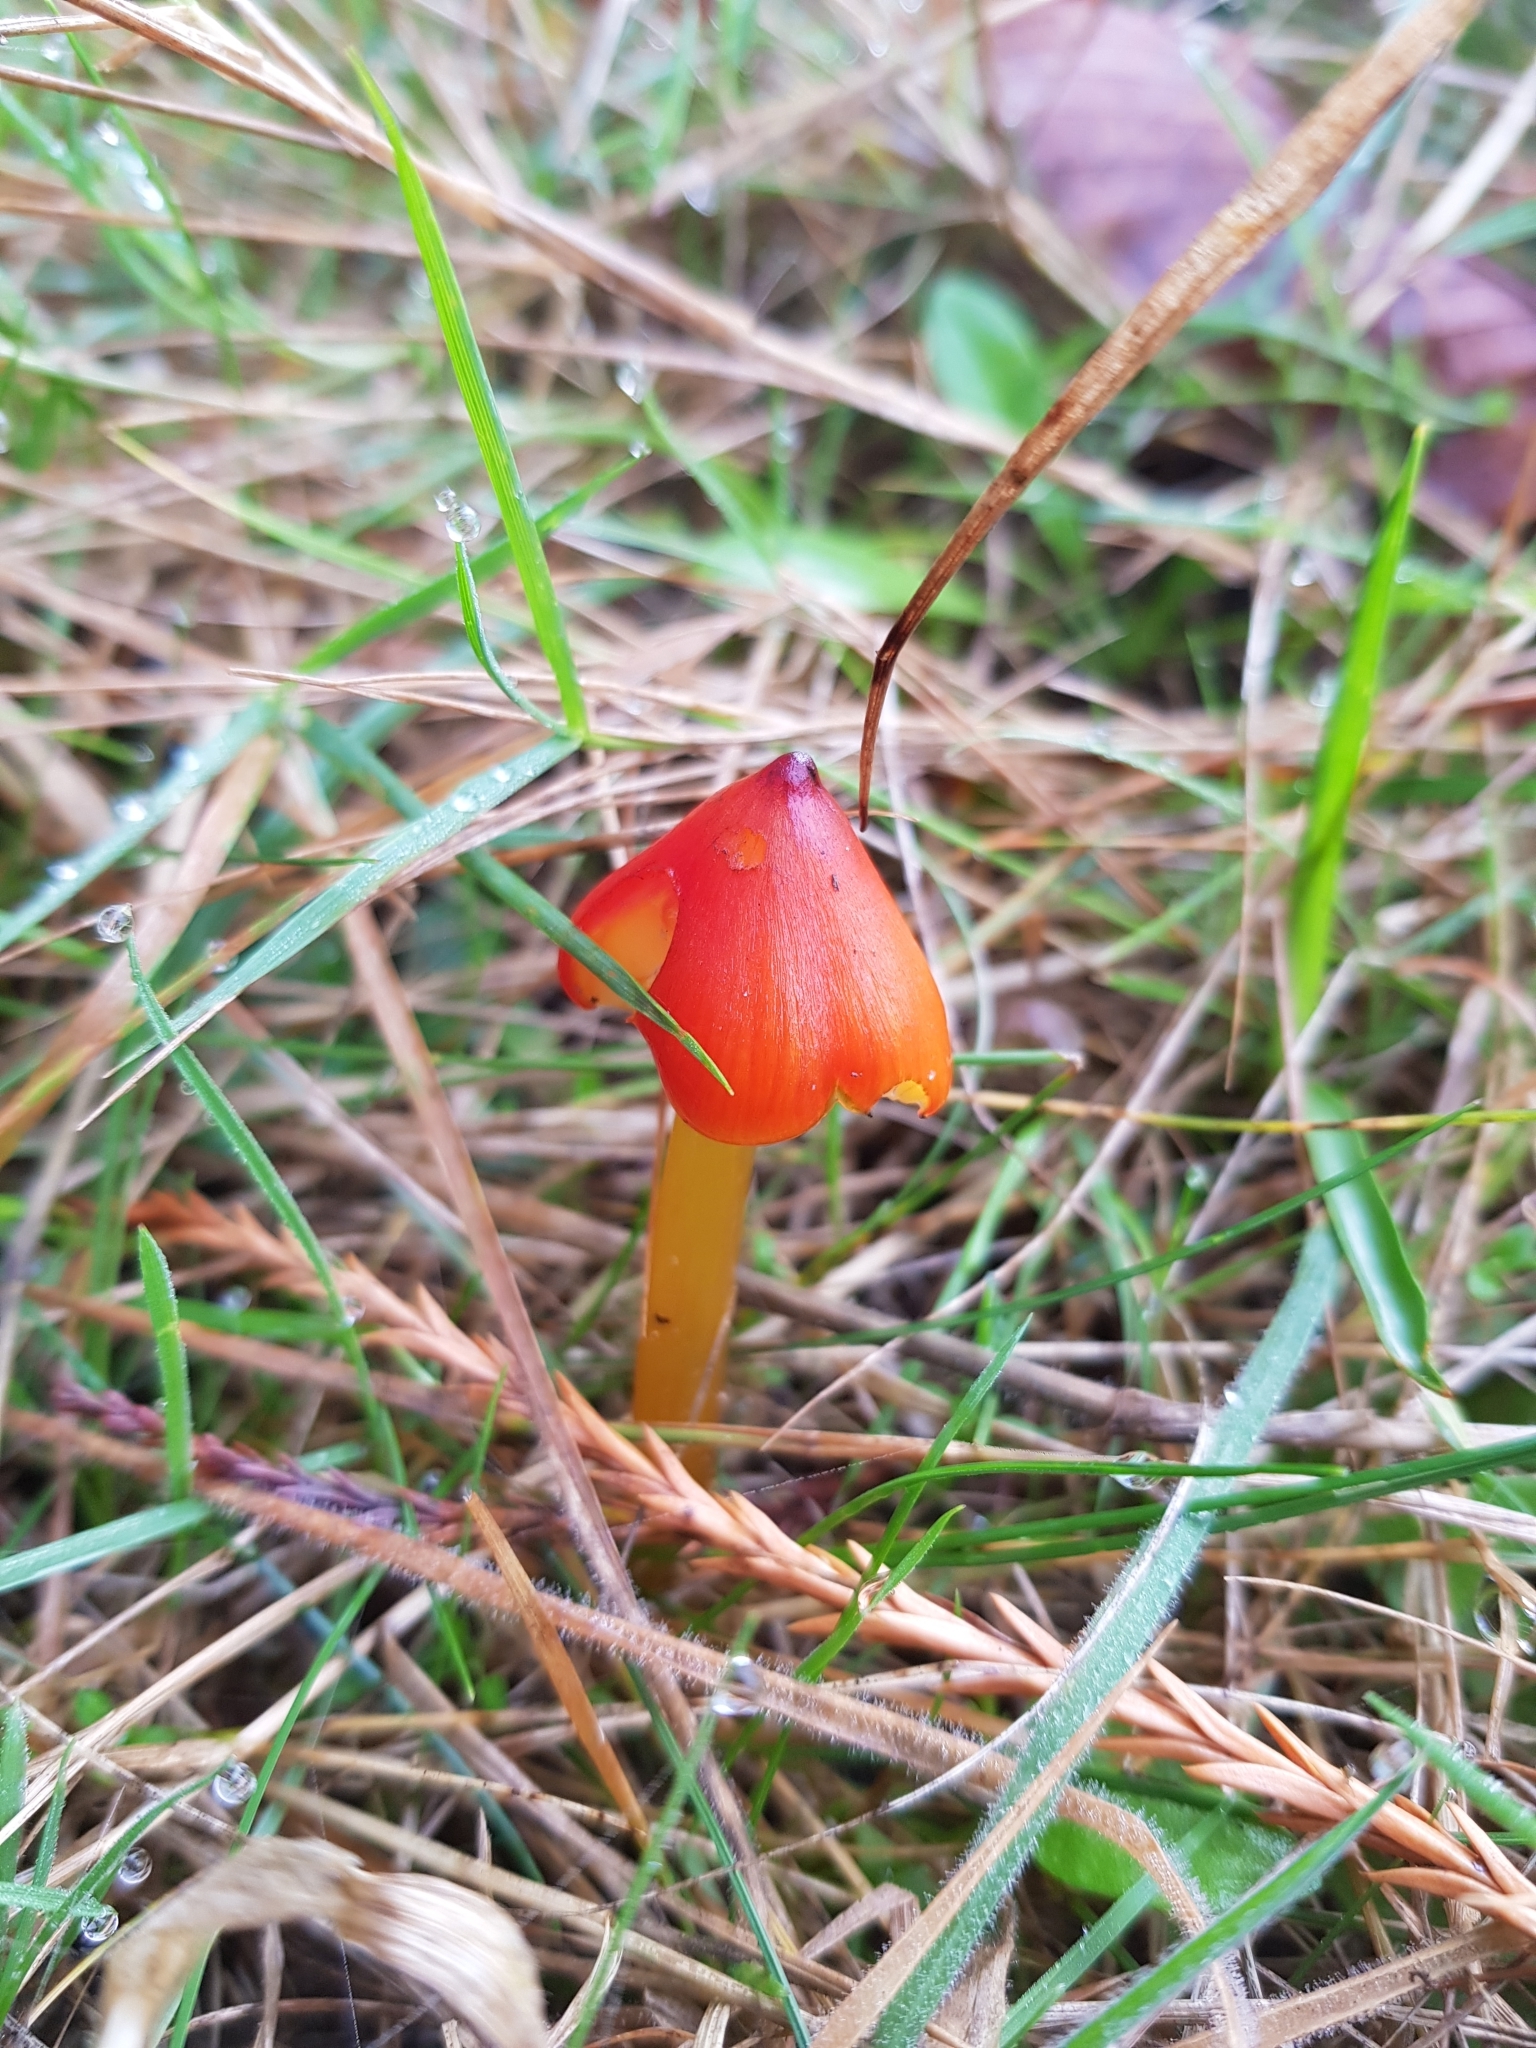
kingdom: Fungi
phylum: Basidiomycota
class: Agaricomycetes
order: Agaricales
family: Hygrophoraceae
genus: Hygrocybe
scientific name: Hygrocybe conica
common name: Blackening wax-cap
